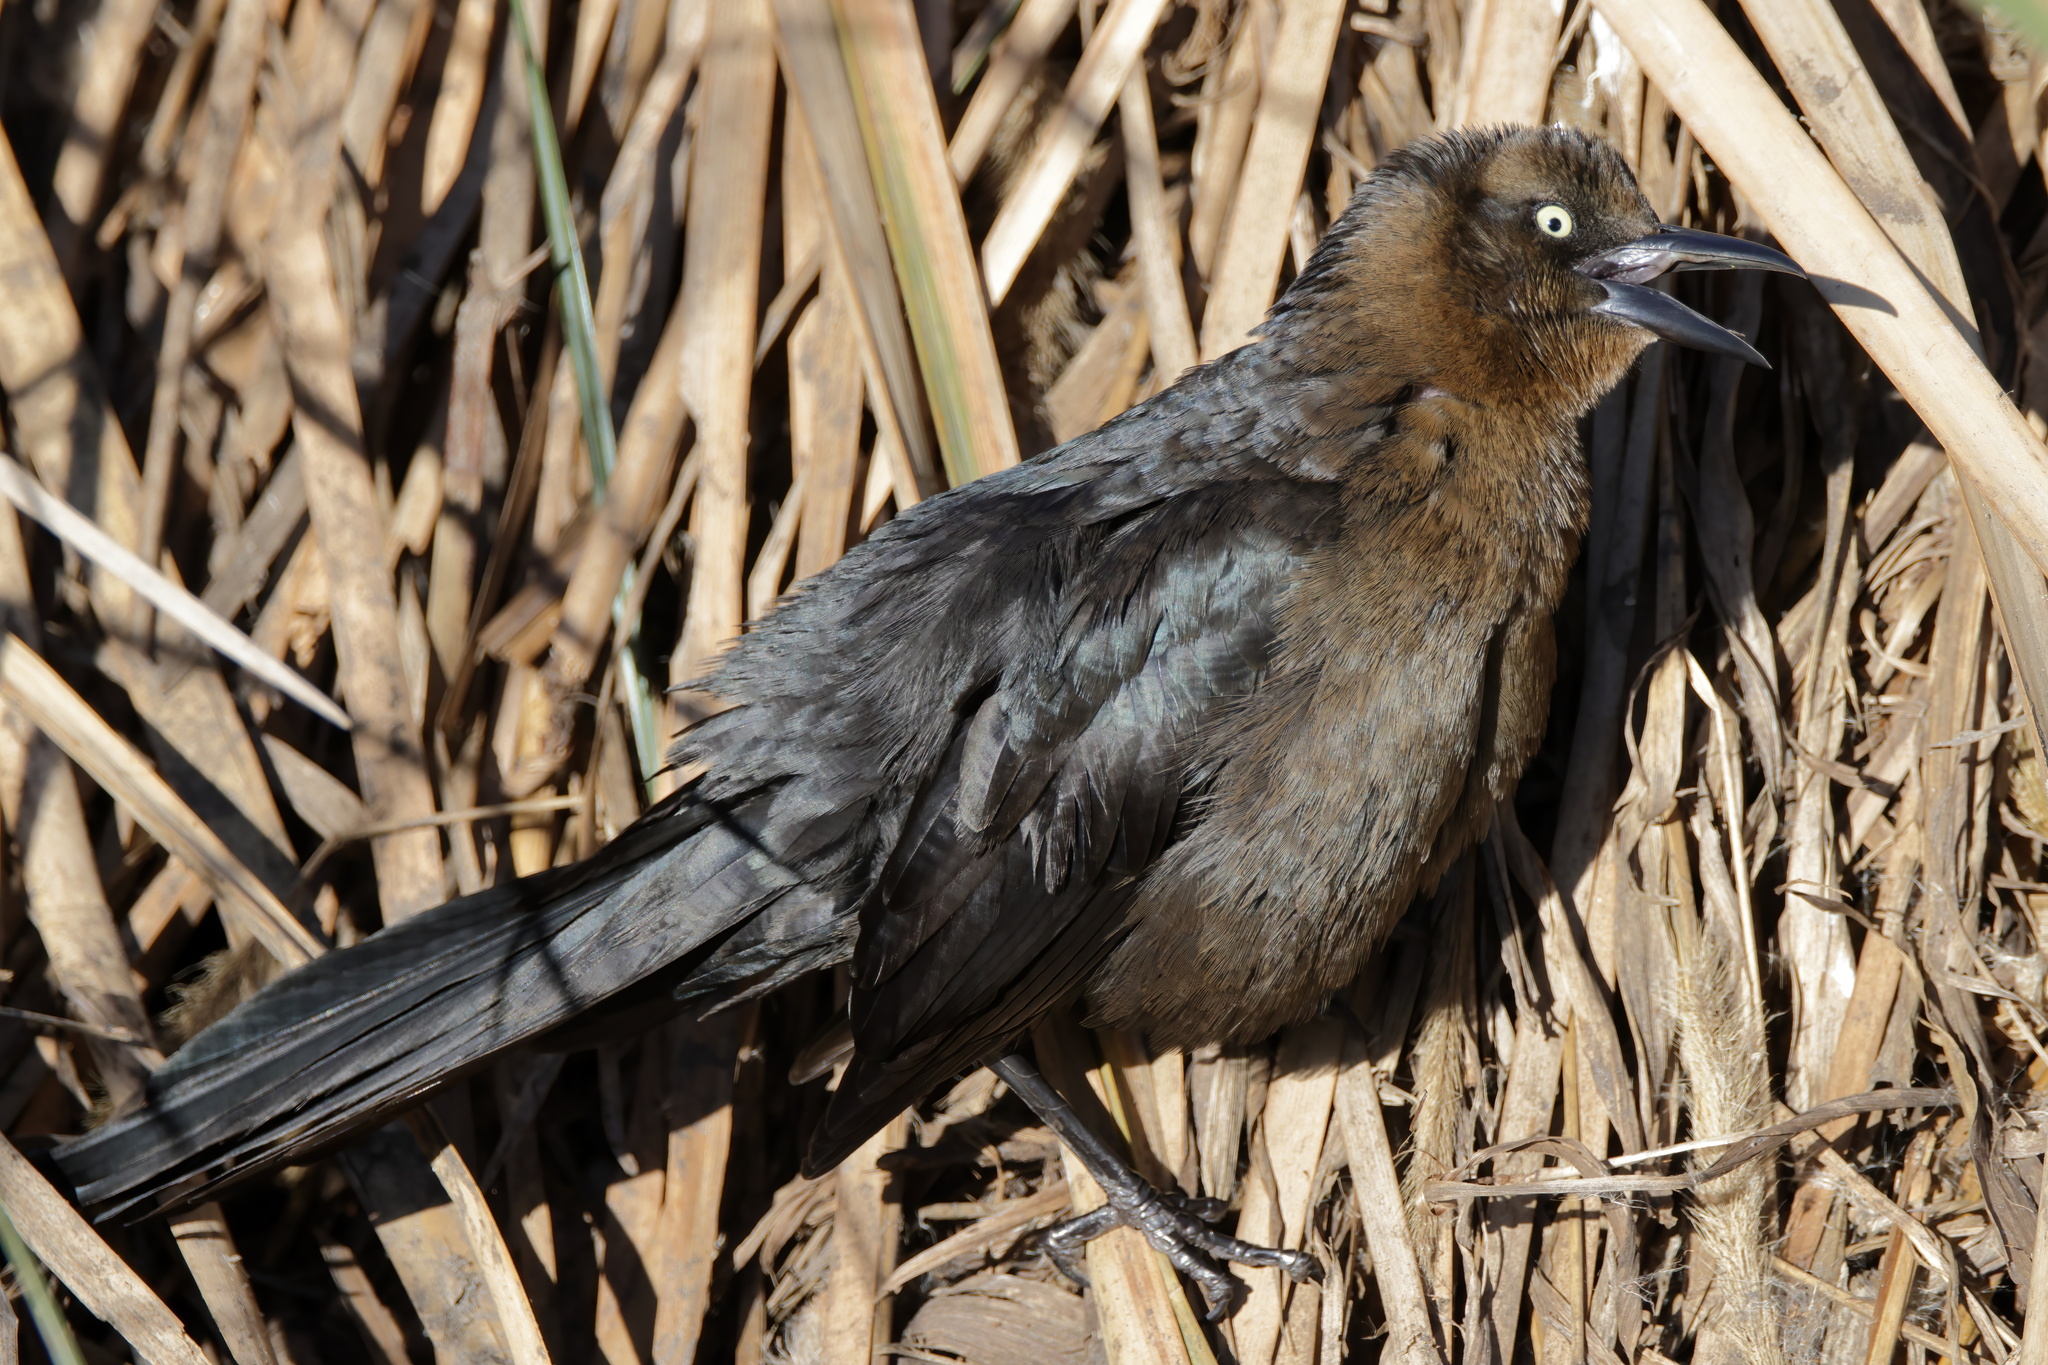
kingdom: Animalia
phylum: Chordata
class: Aves
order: Passeriformes
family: Icteridae
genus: Quiscalus
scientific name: Quiscalus mexicanus
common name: Great-tailed grackle
